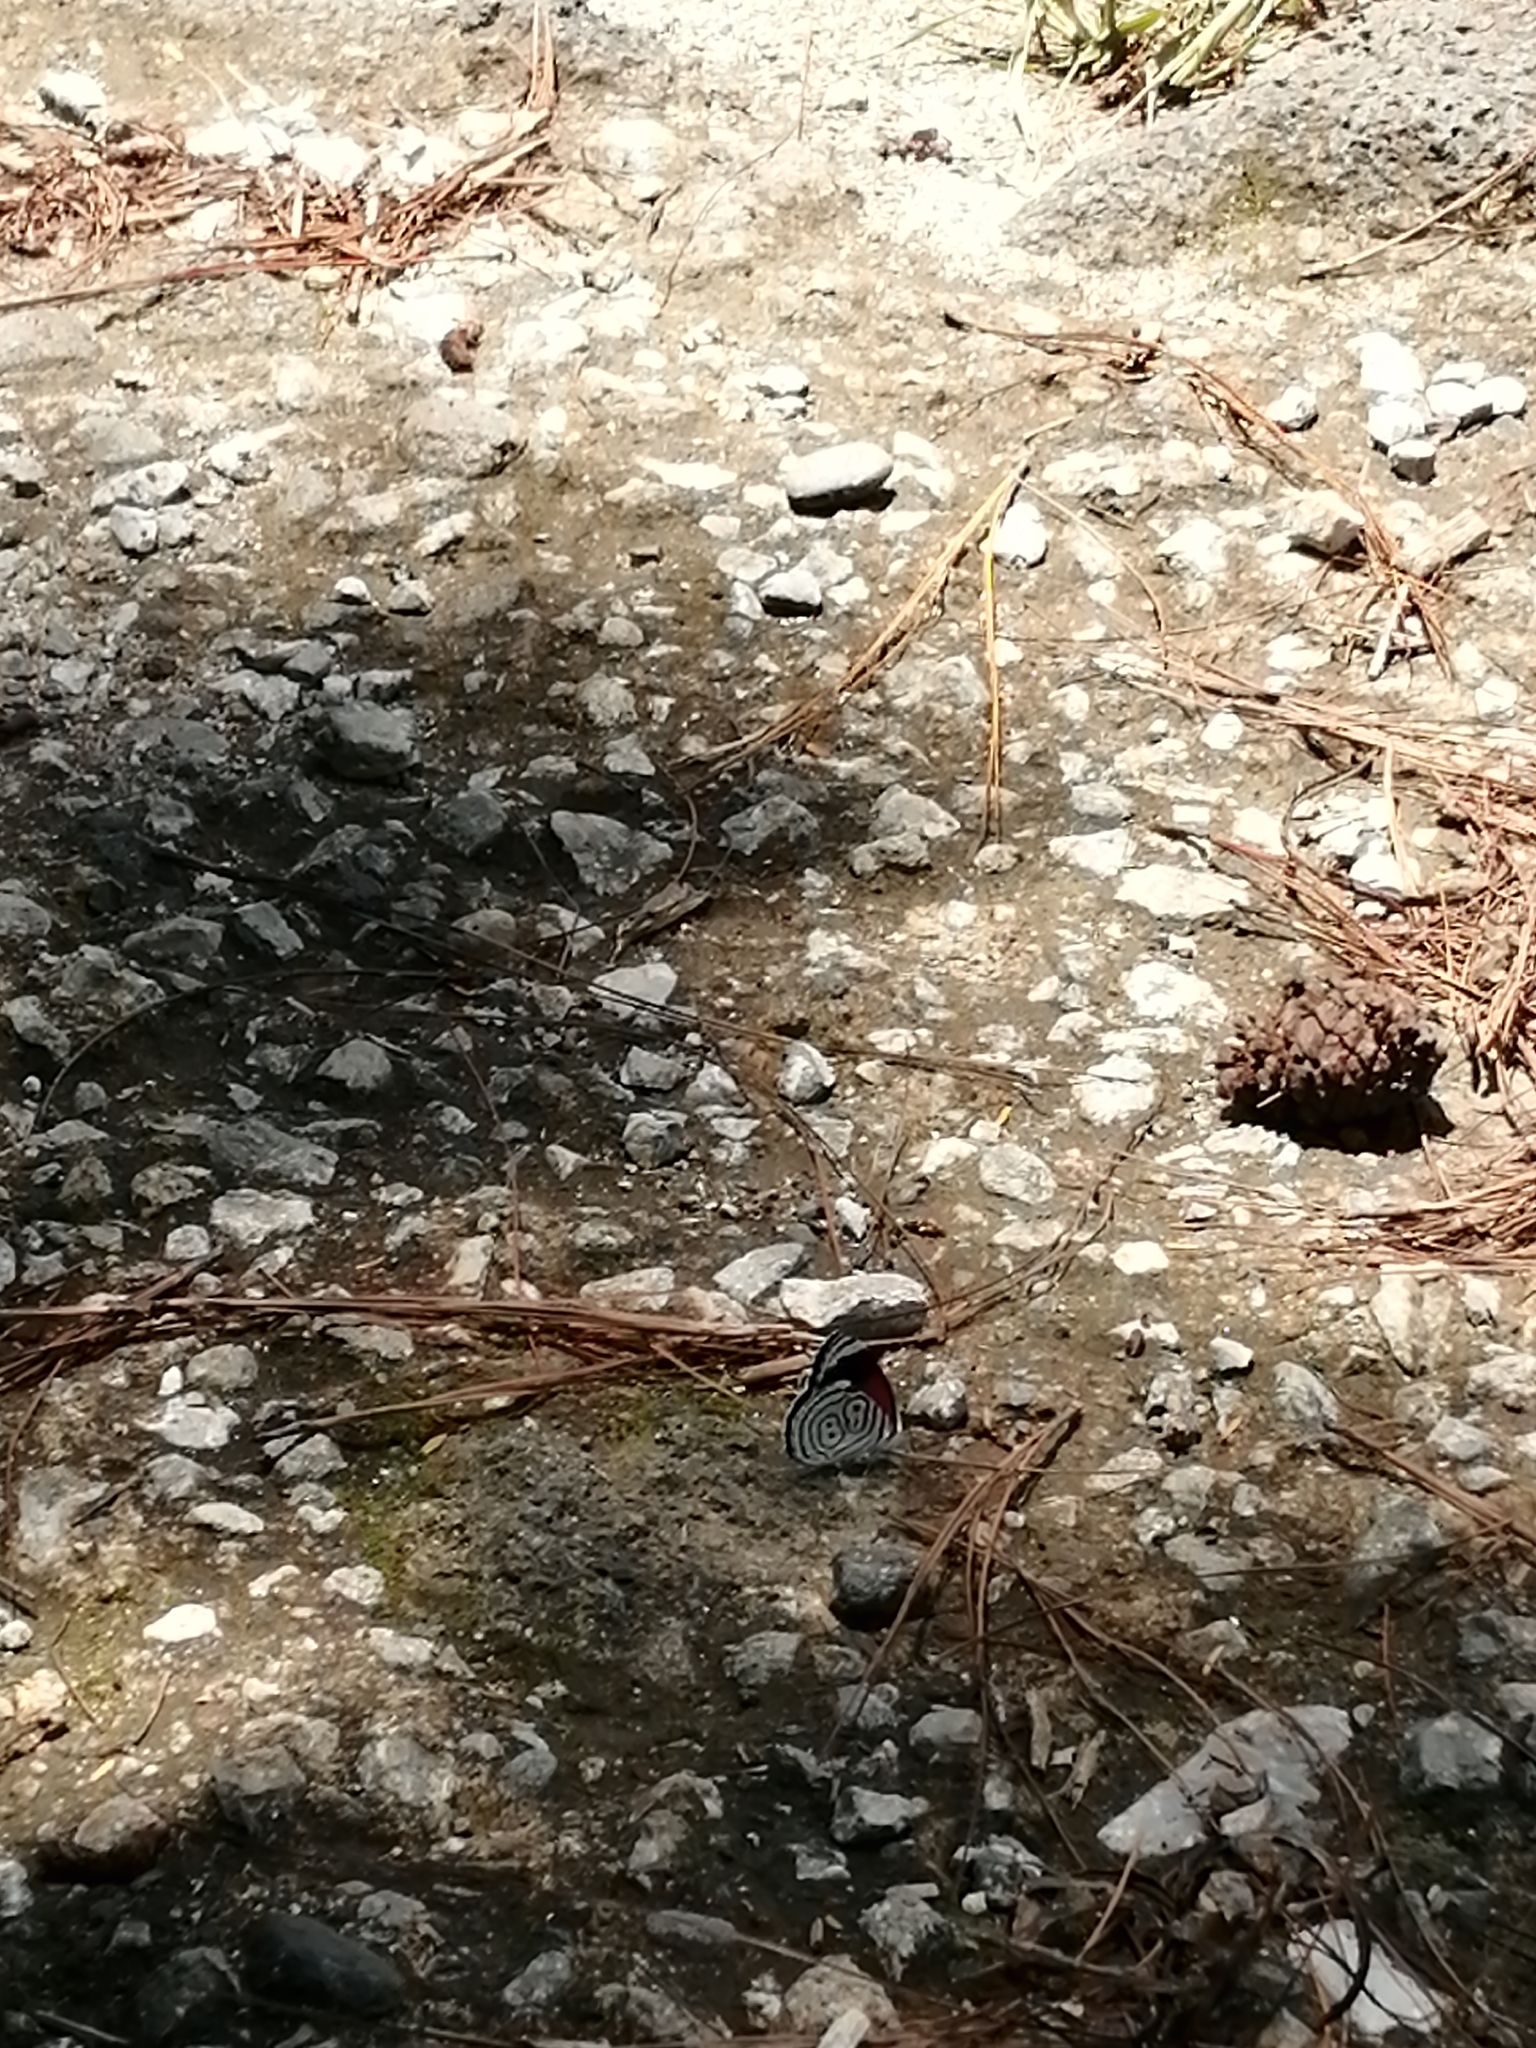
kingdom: Animalia
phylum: Arthropoda
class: Insecta
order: Lepidoptera
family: Nymphalidae
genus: Diaethria
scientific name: Diaethria anna
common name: Anna’s eighty-eight
